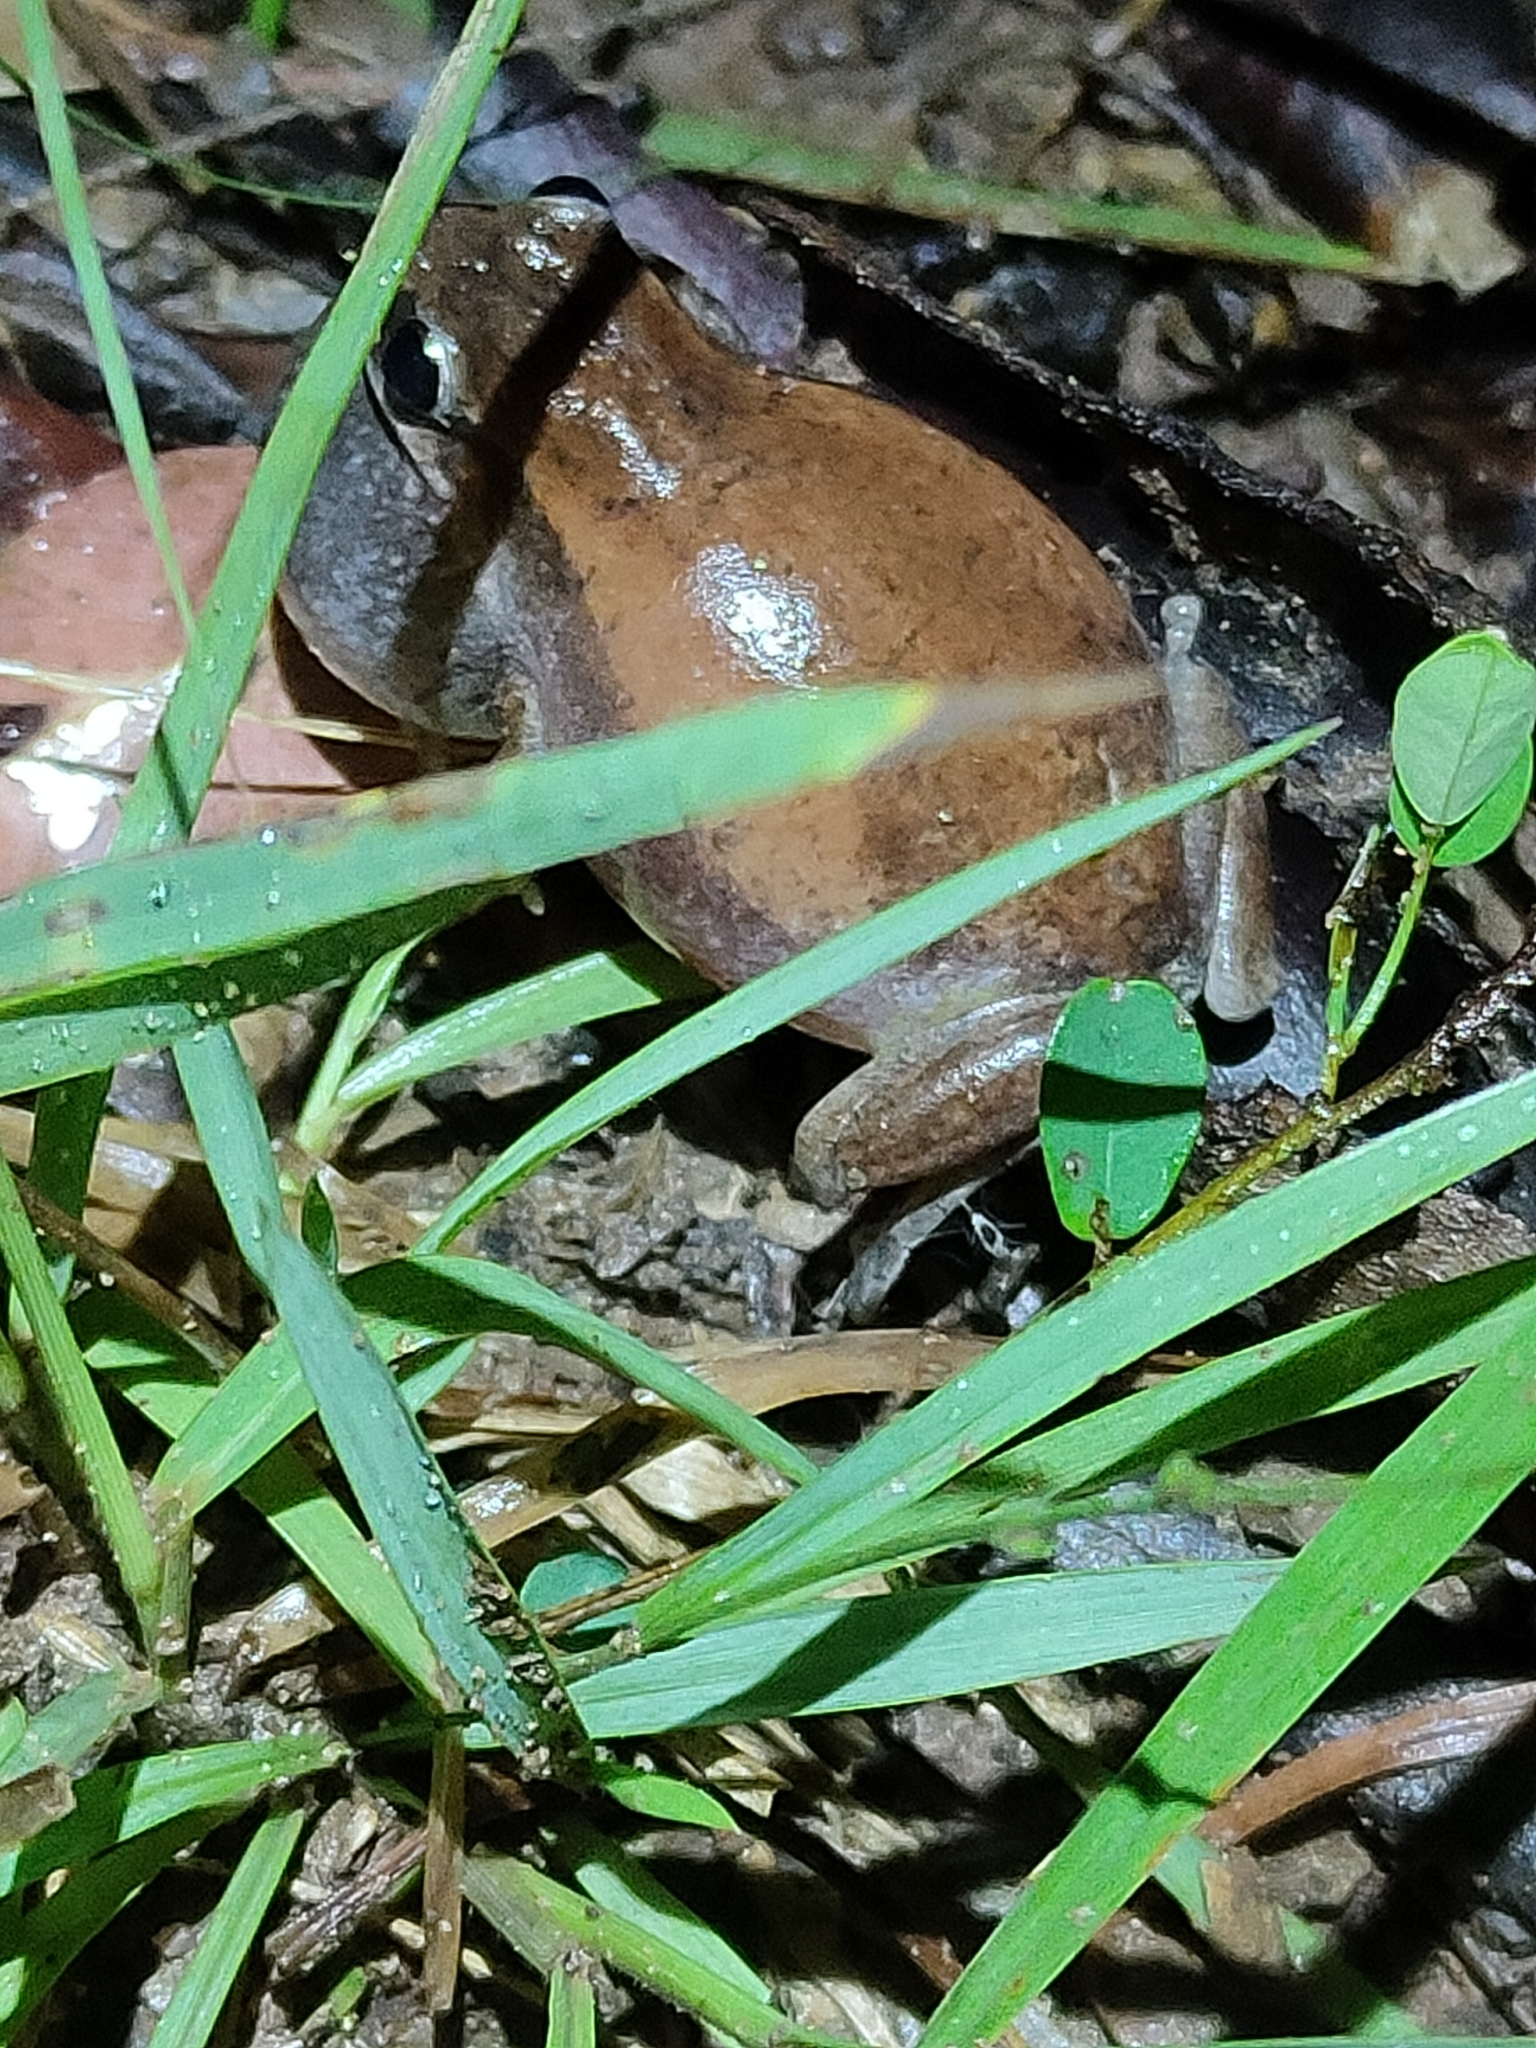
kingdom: Animalia
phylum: Chordata
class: Amphibia
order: Anura
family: Pelodryadidae
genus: Litoria
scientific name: Litoria rubella
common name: Desert tree frog
